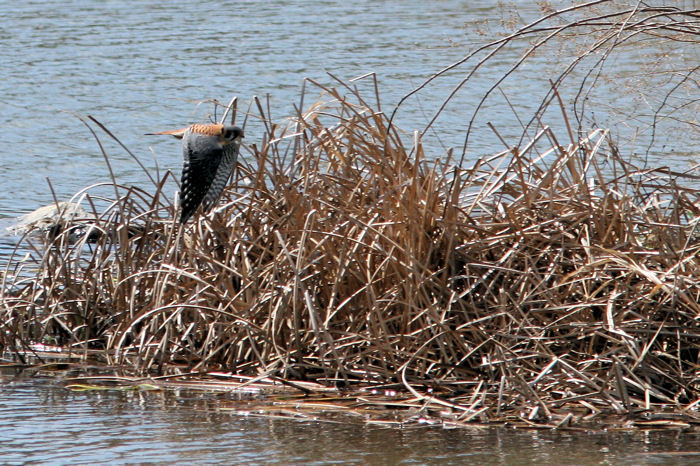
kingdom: Animalia
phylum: Chordata
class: Aves
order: Falconiformes
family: Falconidae
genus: Falco
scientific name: Falco sparverius
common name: American kestrel
